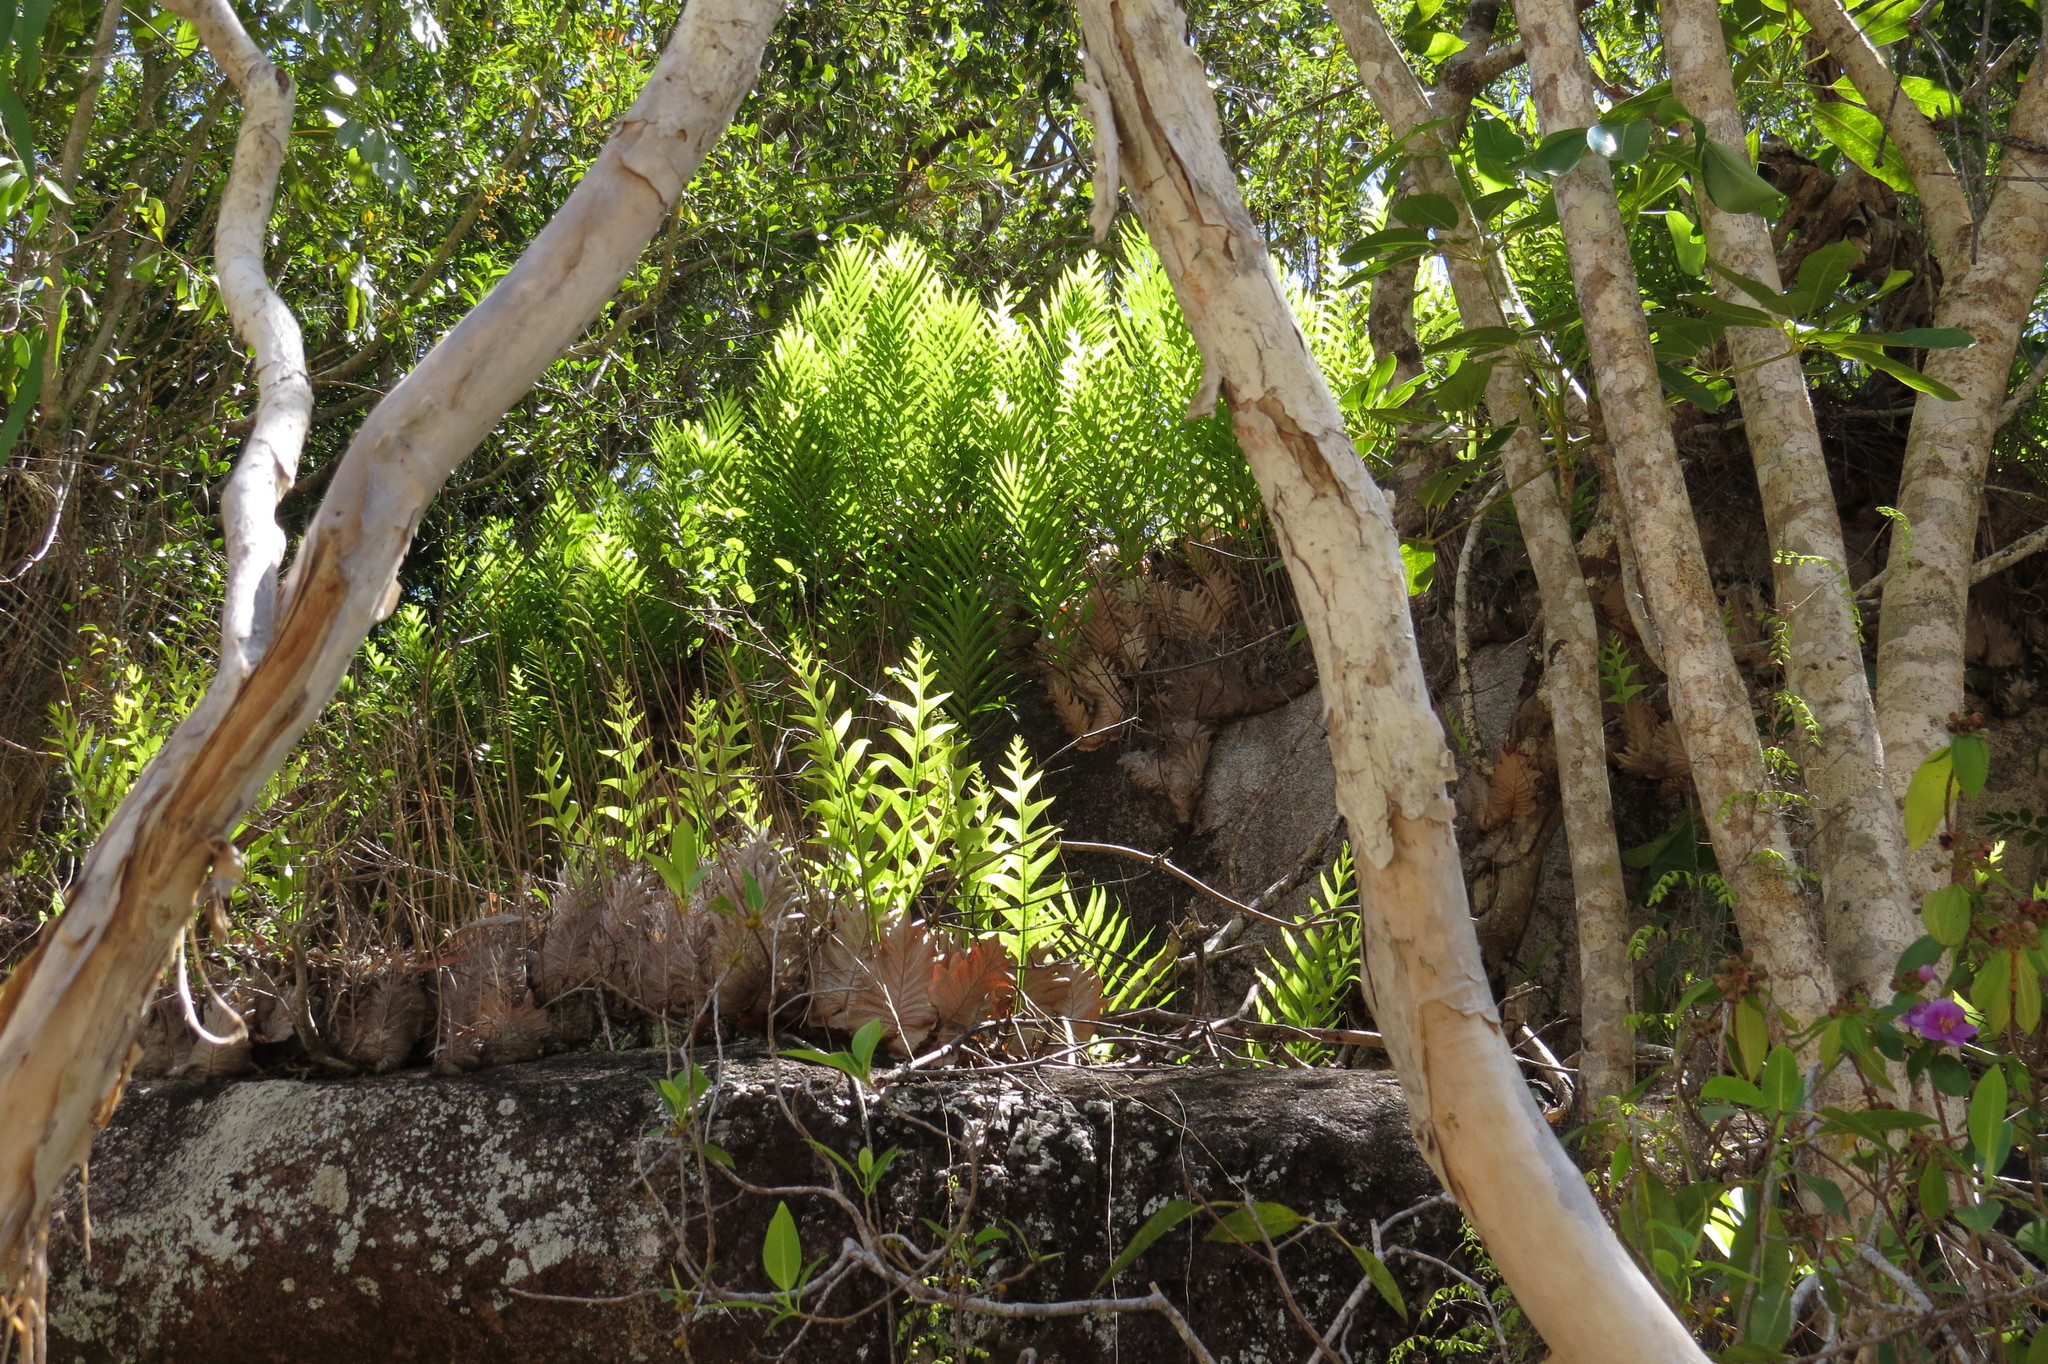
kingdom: Plantae
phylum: Tracheophyta
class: Polypodiopsida
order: Polypodiales
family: Polypodiaceae
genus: Drynaria
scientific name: Drynaria quercifolia
